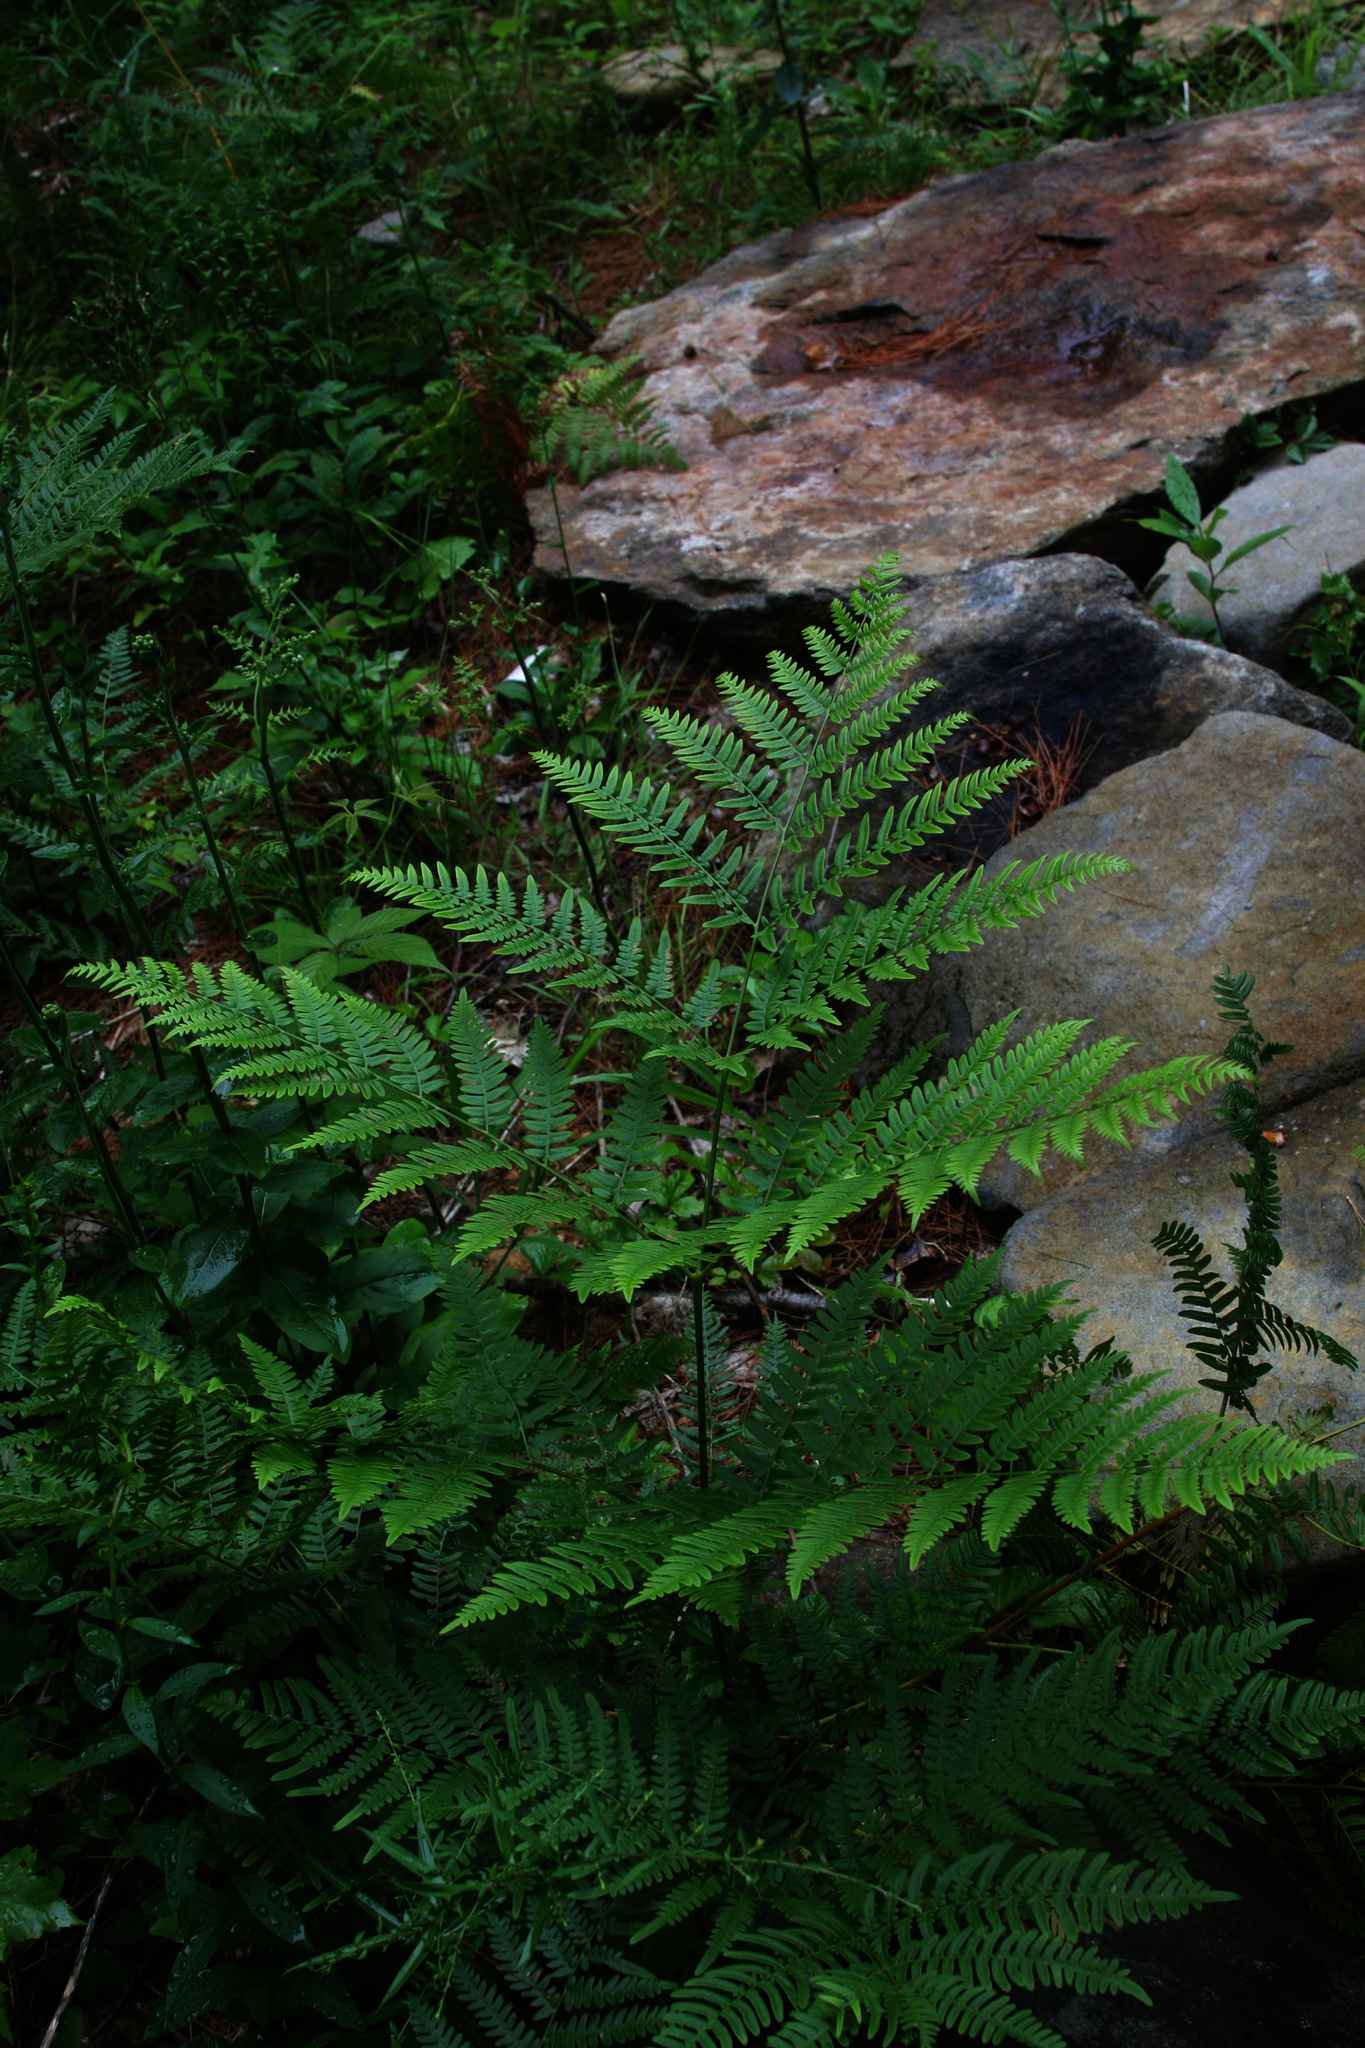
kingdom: Plantae
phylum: Tracheophyta
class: Polypodiopsida
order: Polypodiales
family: Dennstaedtiaceae
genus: Pteridium
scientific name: Pteridium aquilinum
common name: Bracken
